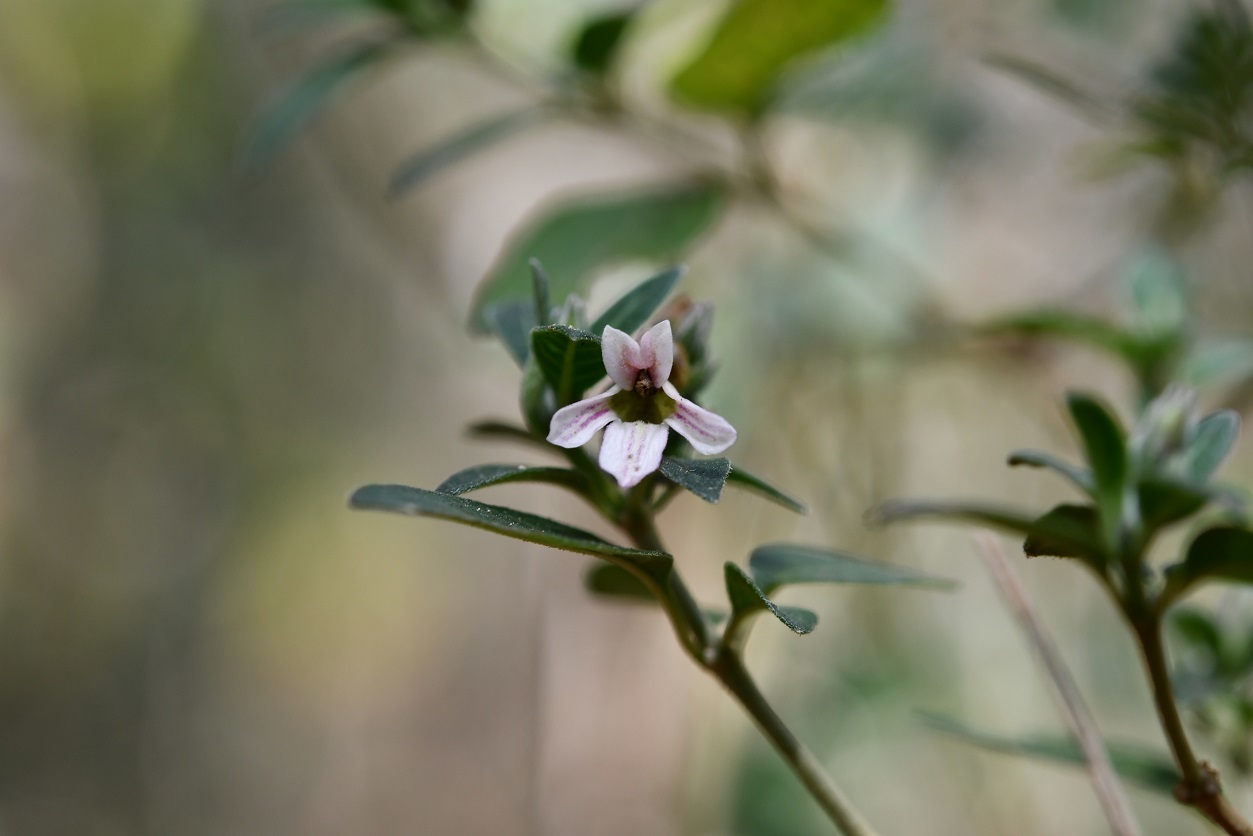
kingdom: Plantae
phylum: Tracheophyta
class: Magnoliopsida
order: Lamiales
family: Acanthaceae
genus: Holographis
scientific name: Holographis parayana
